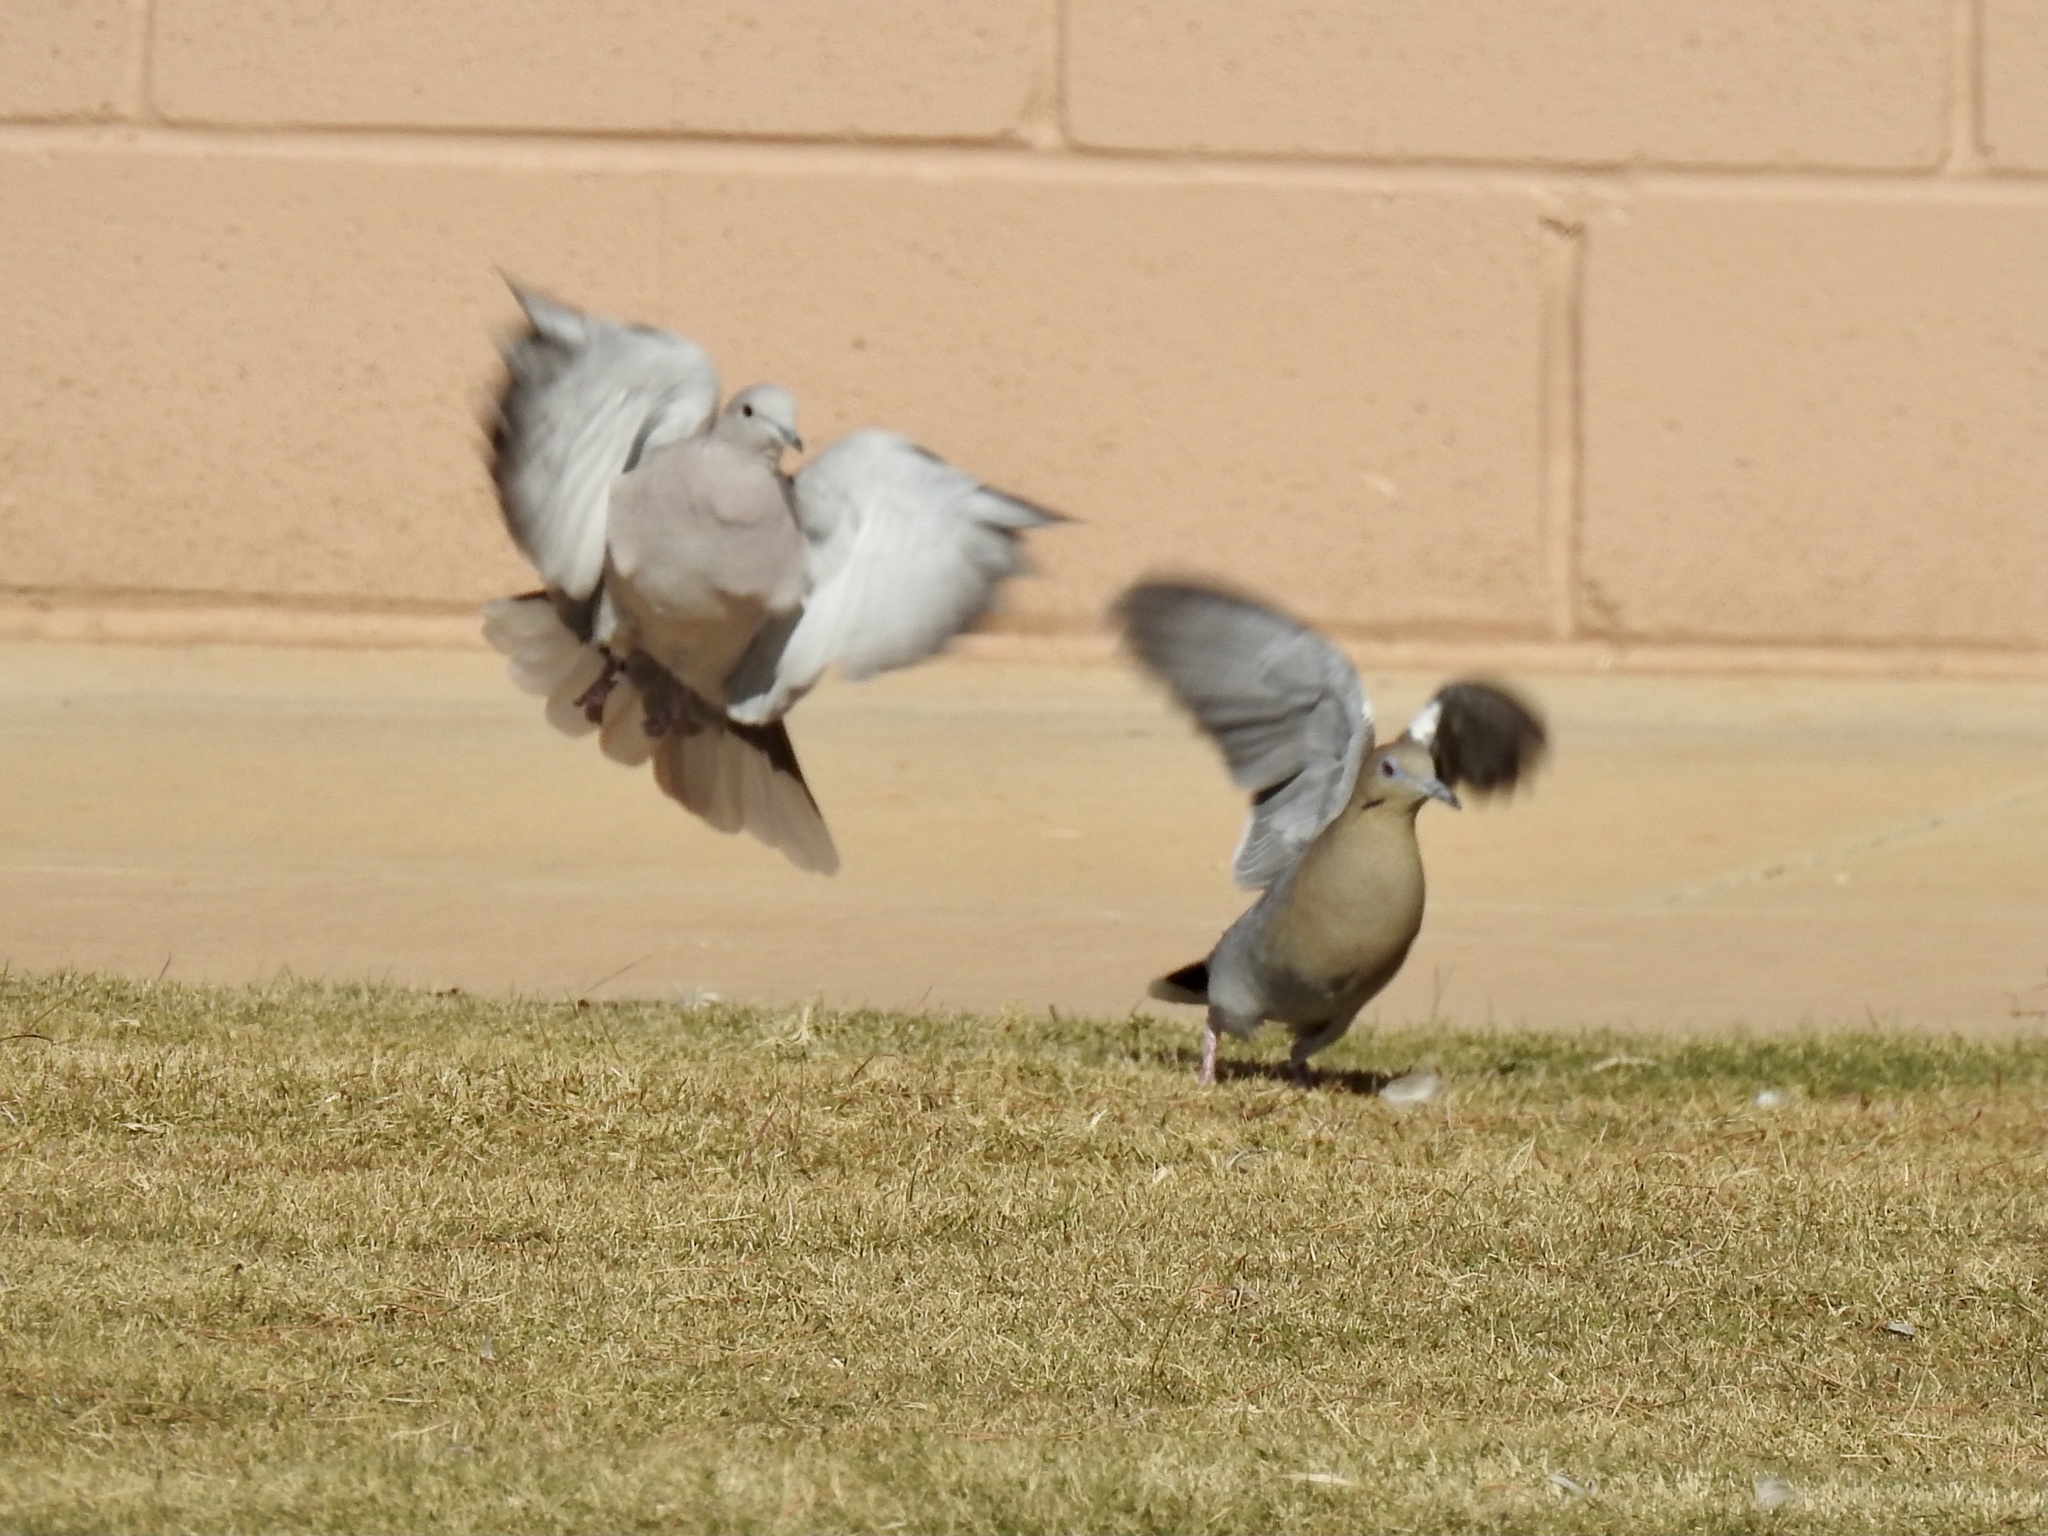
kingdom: Animalia
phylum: Chordata
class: Aves
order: Columbiformes
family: Columbidae
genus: Streptopelia
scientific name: Streptopelia decaocto
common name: Eurasian collared dove
